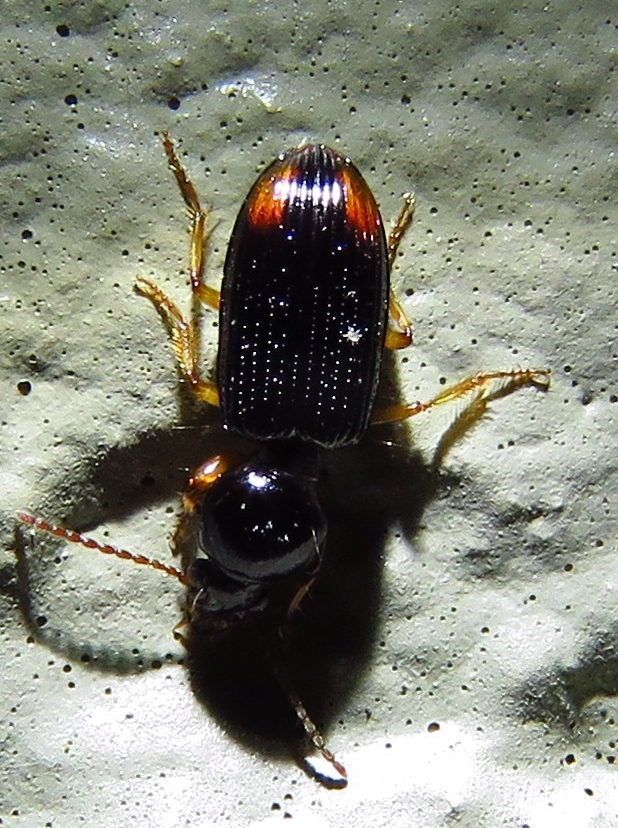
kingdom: Animalia
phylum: Arthropoda
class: Insecta
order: Coleoptera
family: Carabidae
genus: Aspidoglossa
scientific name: Aspidoglossa subangulata
